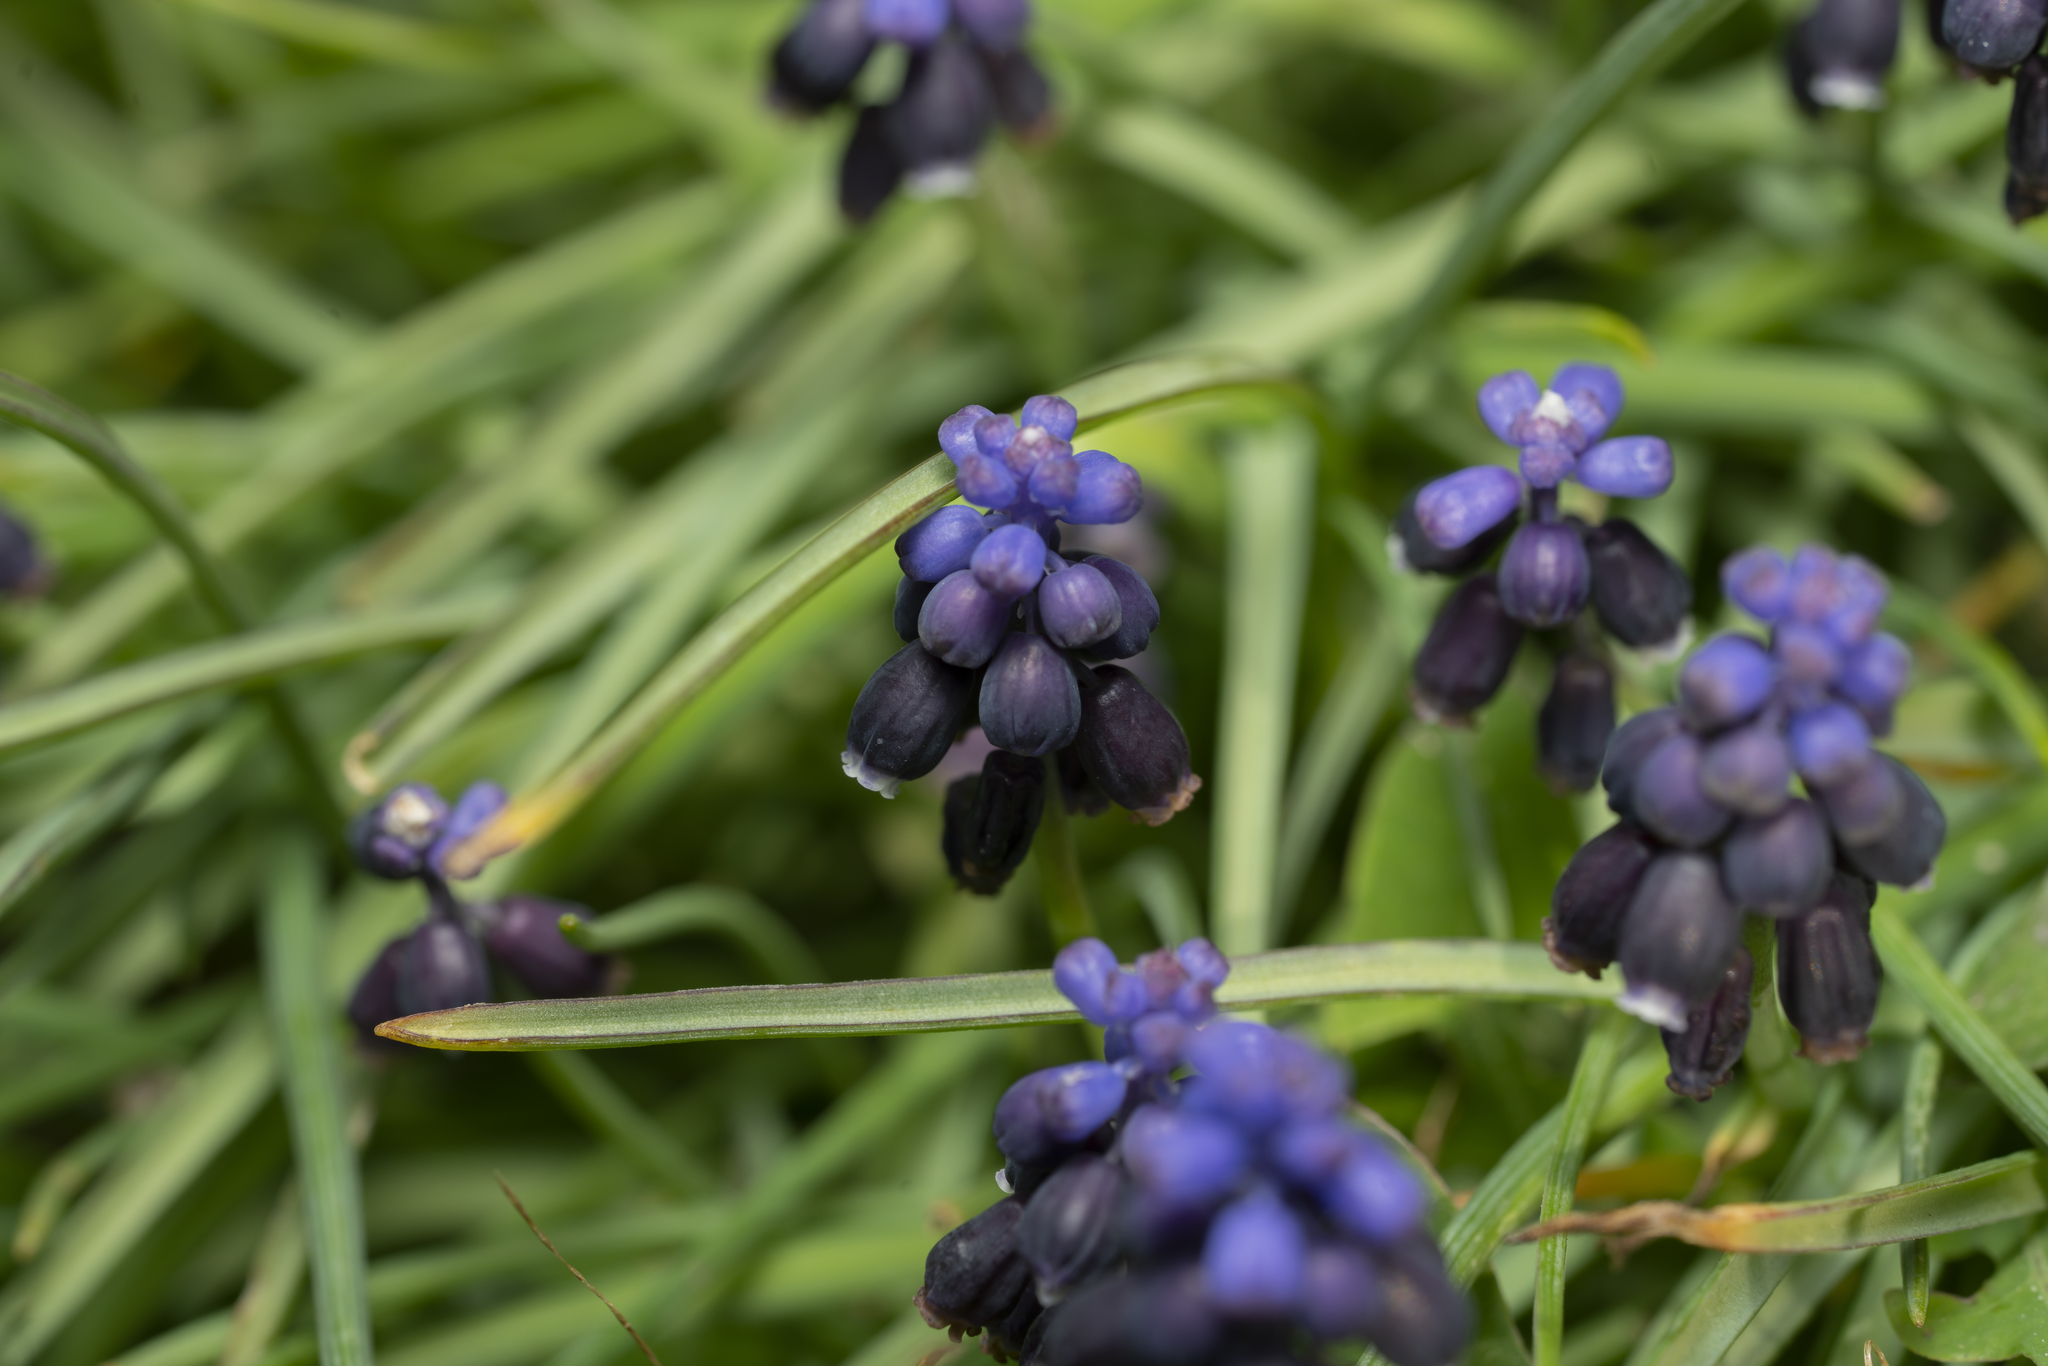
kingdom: Plantae
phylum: Tracheophyta
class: Liliopsida
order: Asparagales
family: Asparagaceae
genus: Muscari
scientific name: Muscari neglectum
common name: Grape-hyacinth
